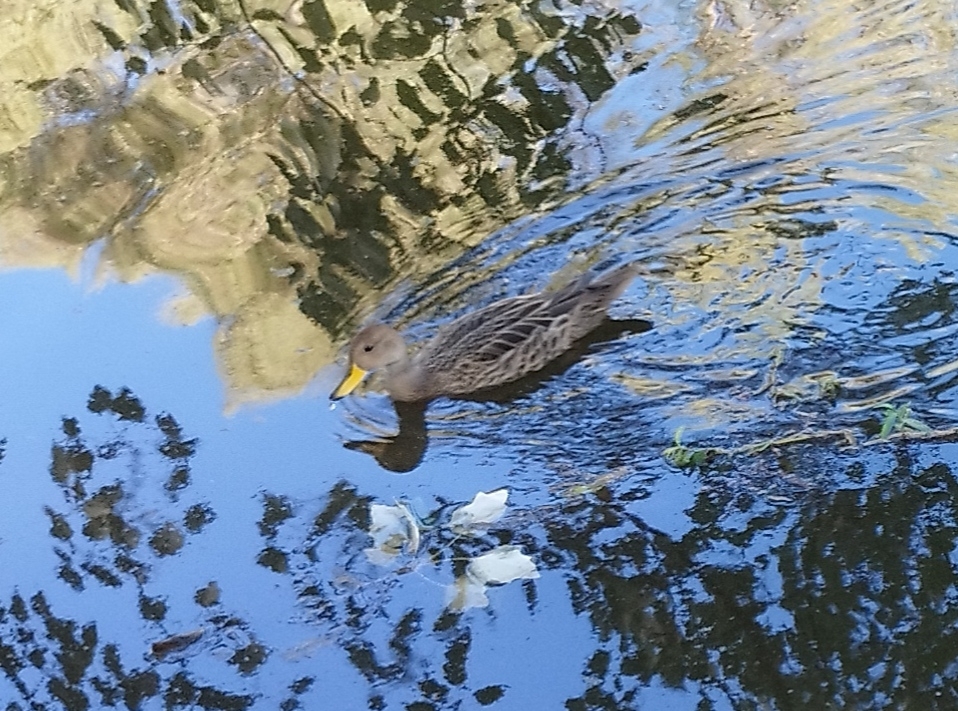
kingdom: Animalia
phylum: Chordata
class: Aves
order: Anseriformes
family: Anatidae
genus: Anas
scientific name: Anas georgica
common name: Yellow-billed pintail
